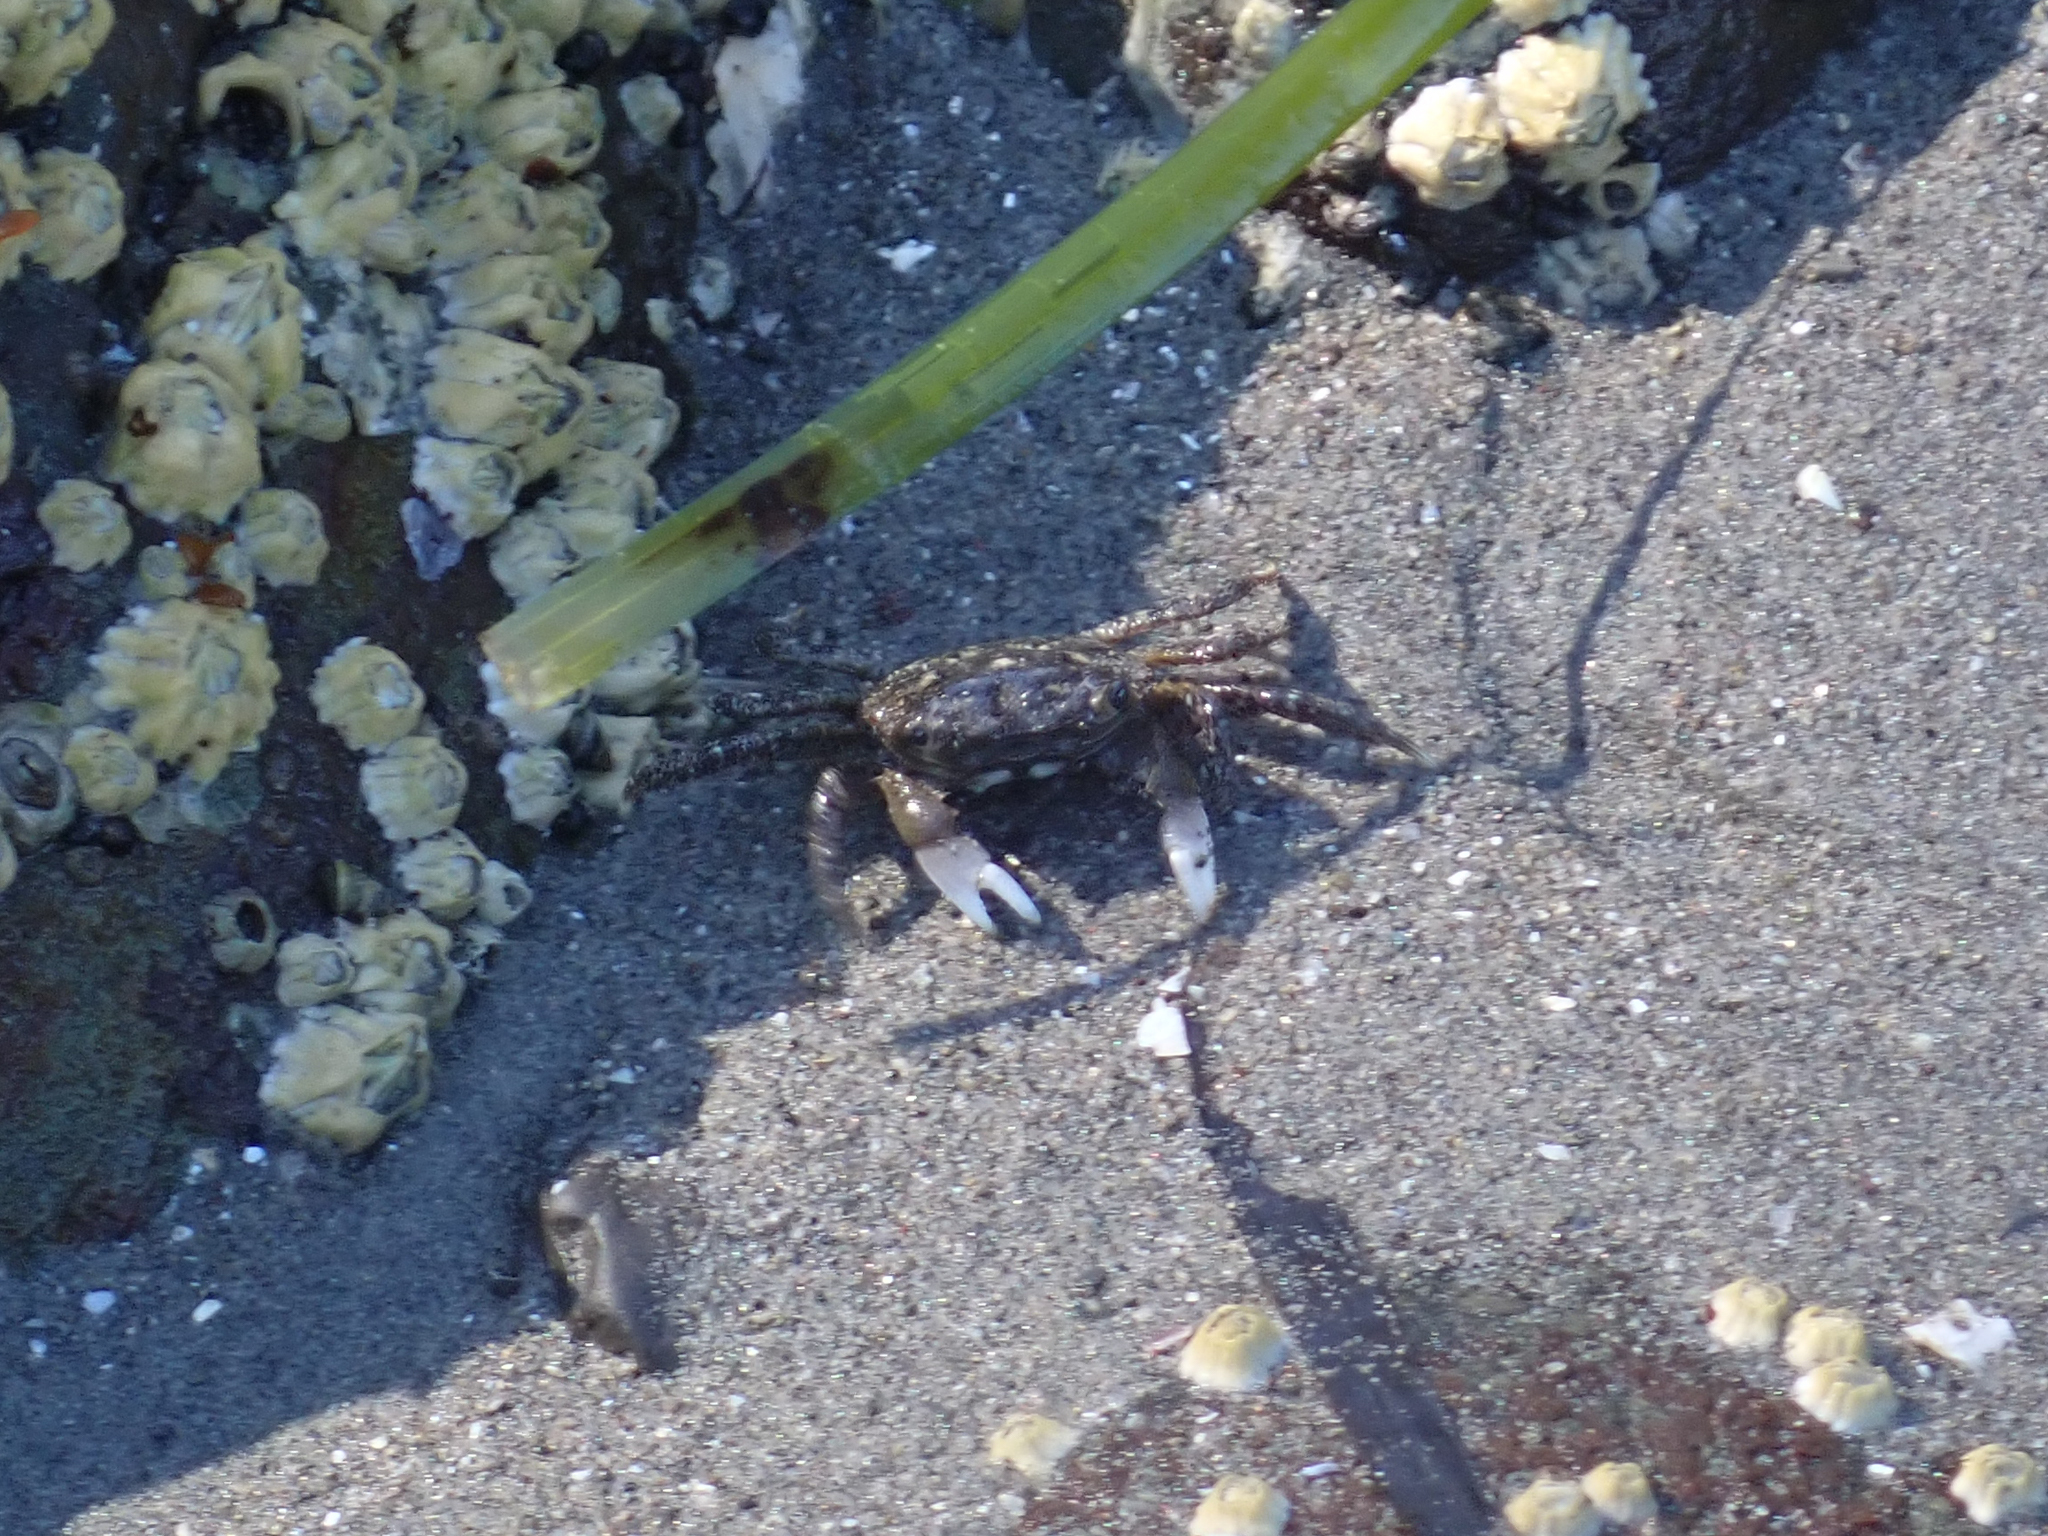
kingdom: Animalia
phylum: Arthropoda
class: Malacostraca
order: Decapoda
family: Varunidae
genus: Hemigrapsus
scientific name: Hemigrapsus oregonensis
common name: Yellow shore crab
